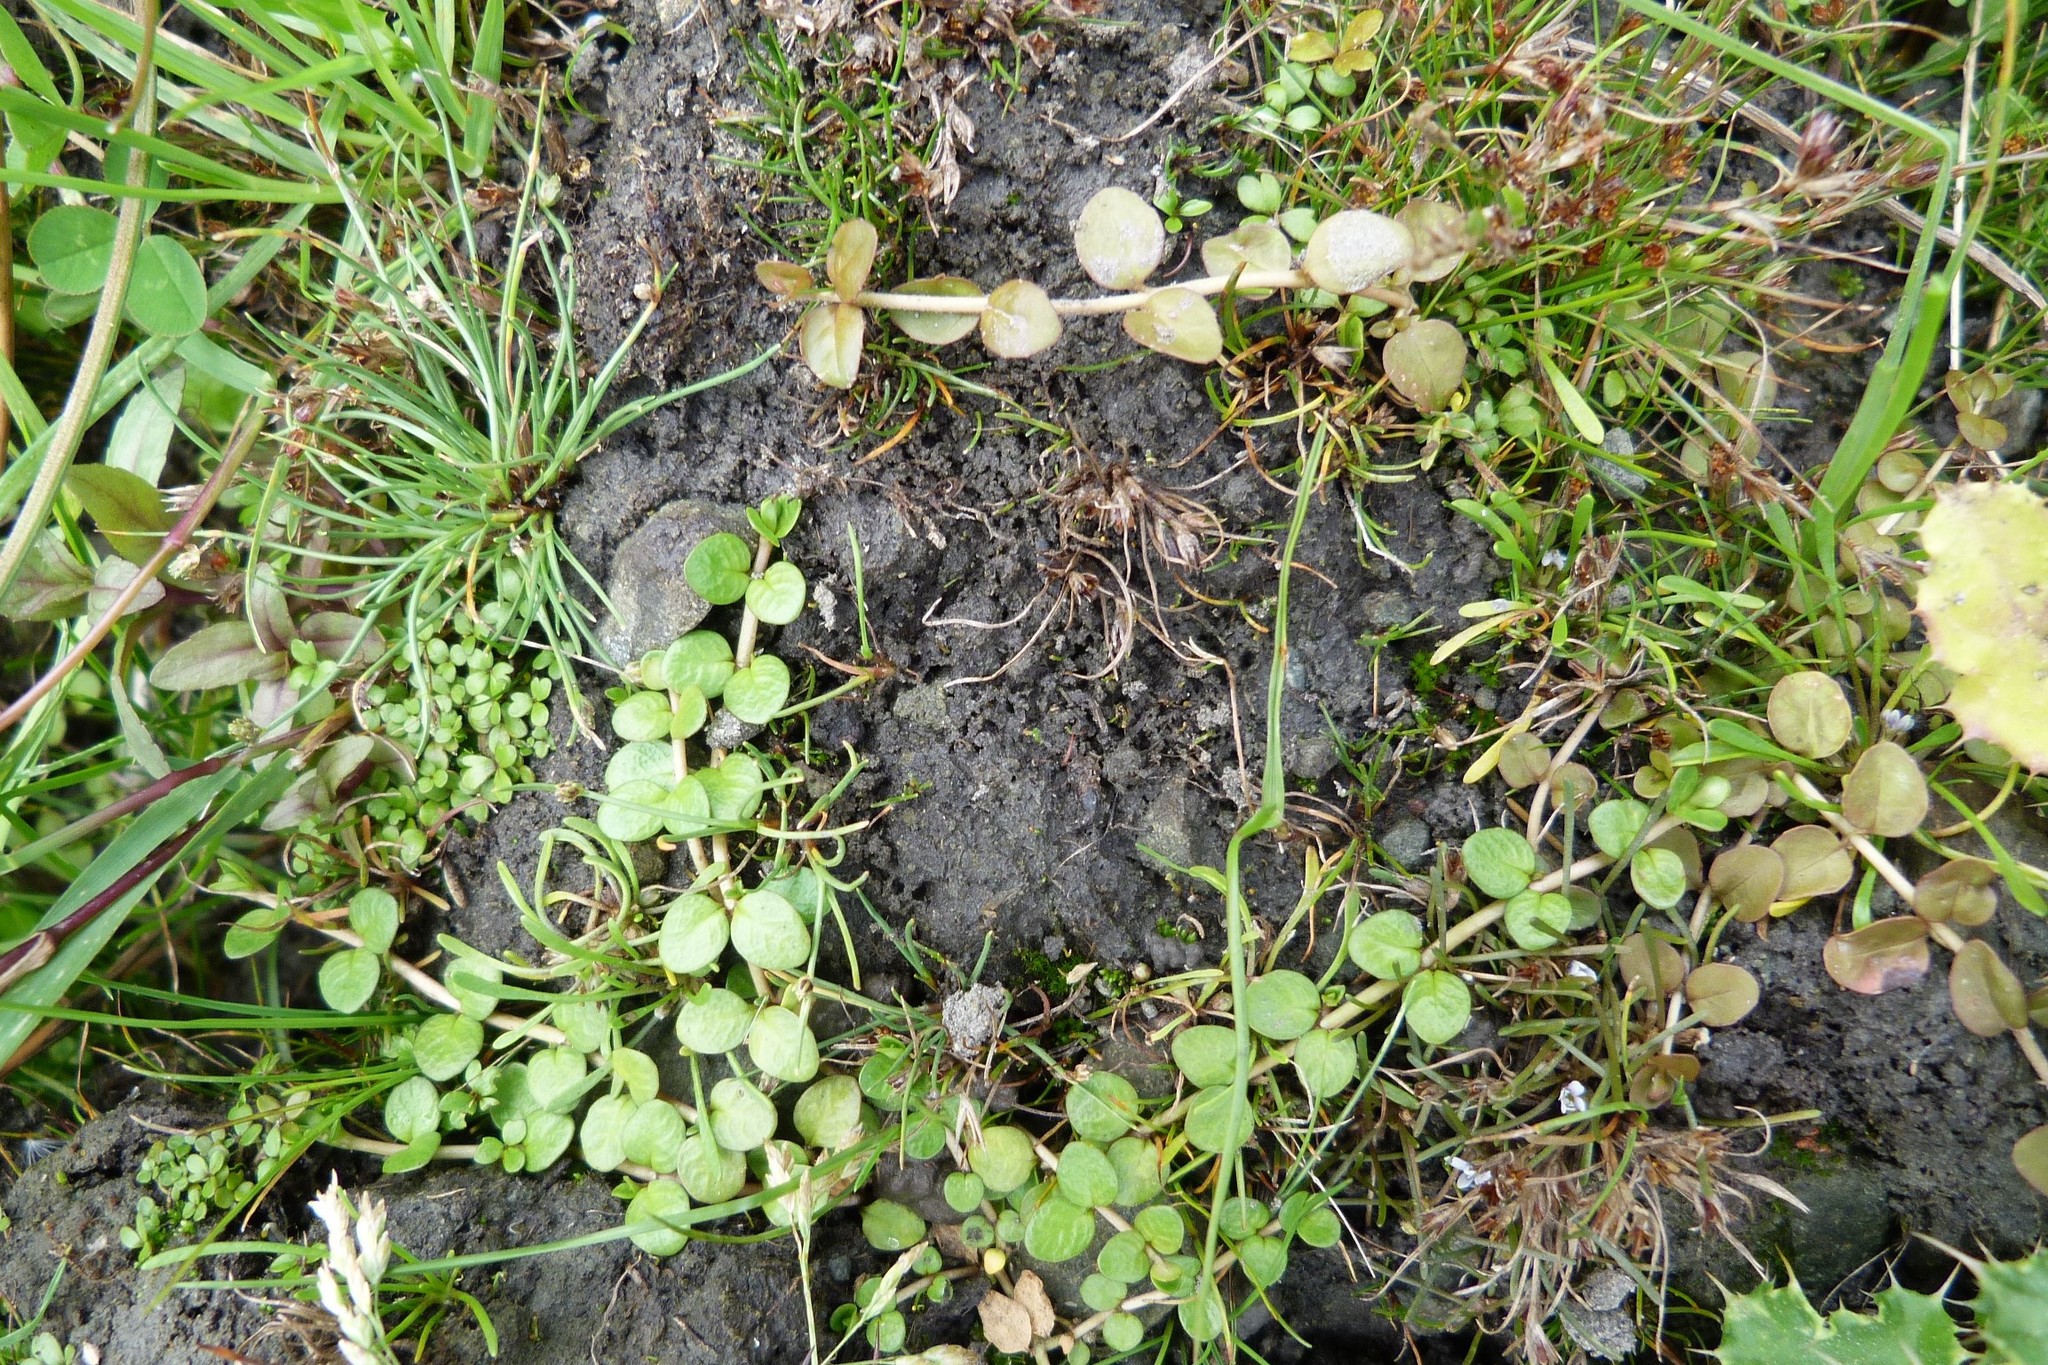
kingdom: Plantae
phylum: Tracheophyta
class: Magnoliopsida
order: Myrtales
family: Onagraceae
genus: Epilobium
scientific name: Epilobium brunnescens
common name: New zealand willowherb
